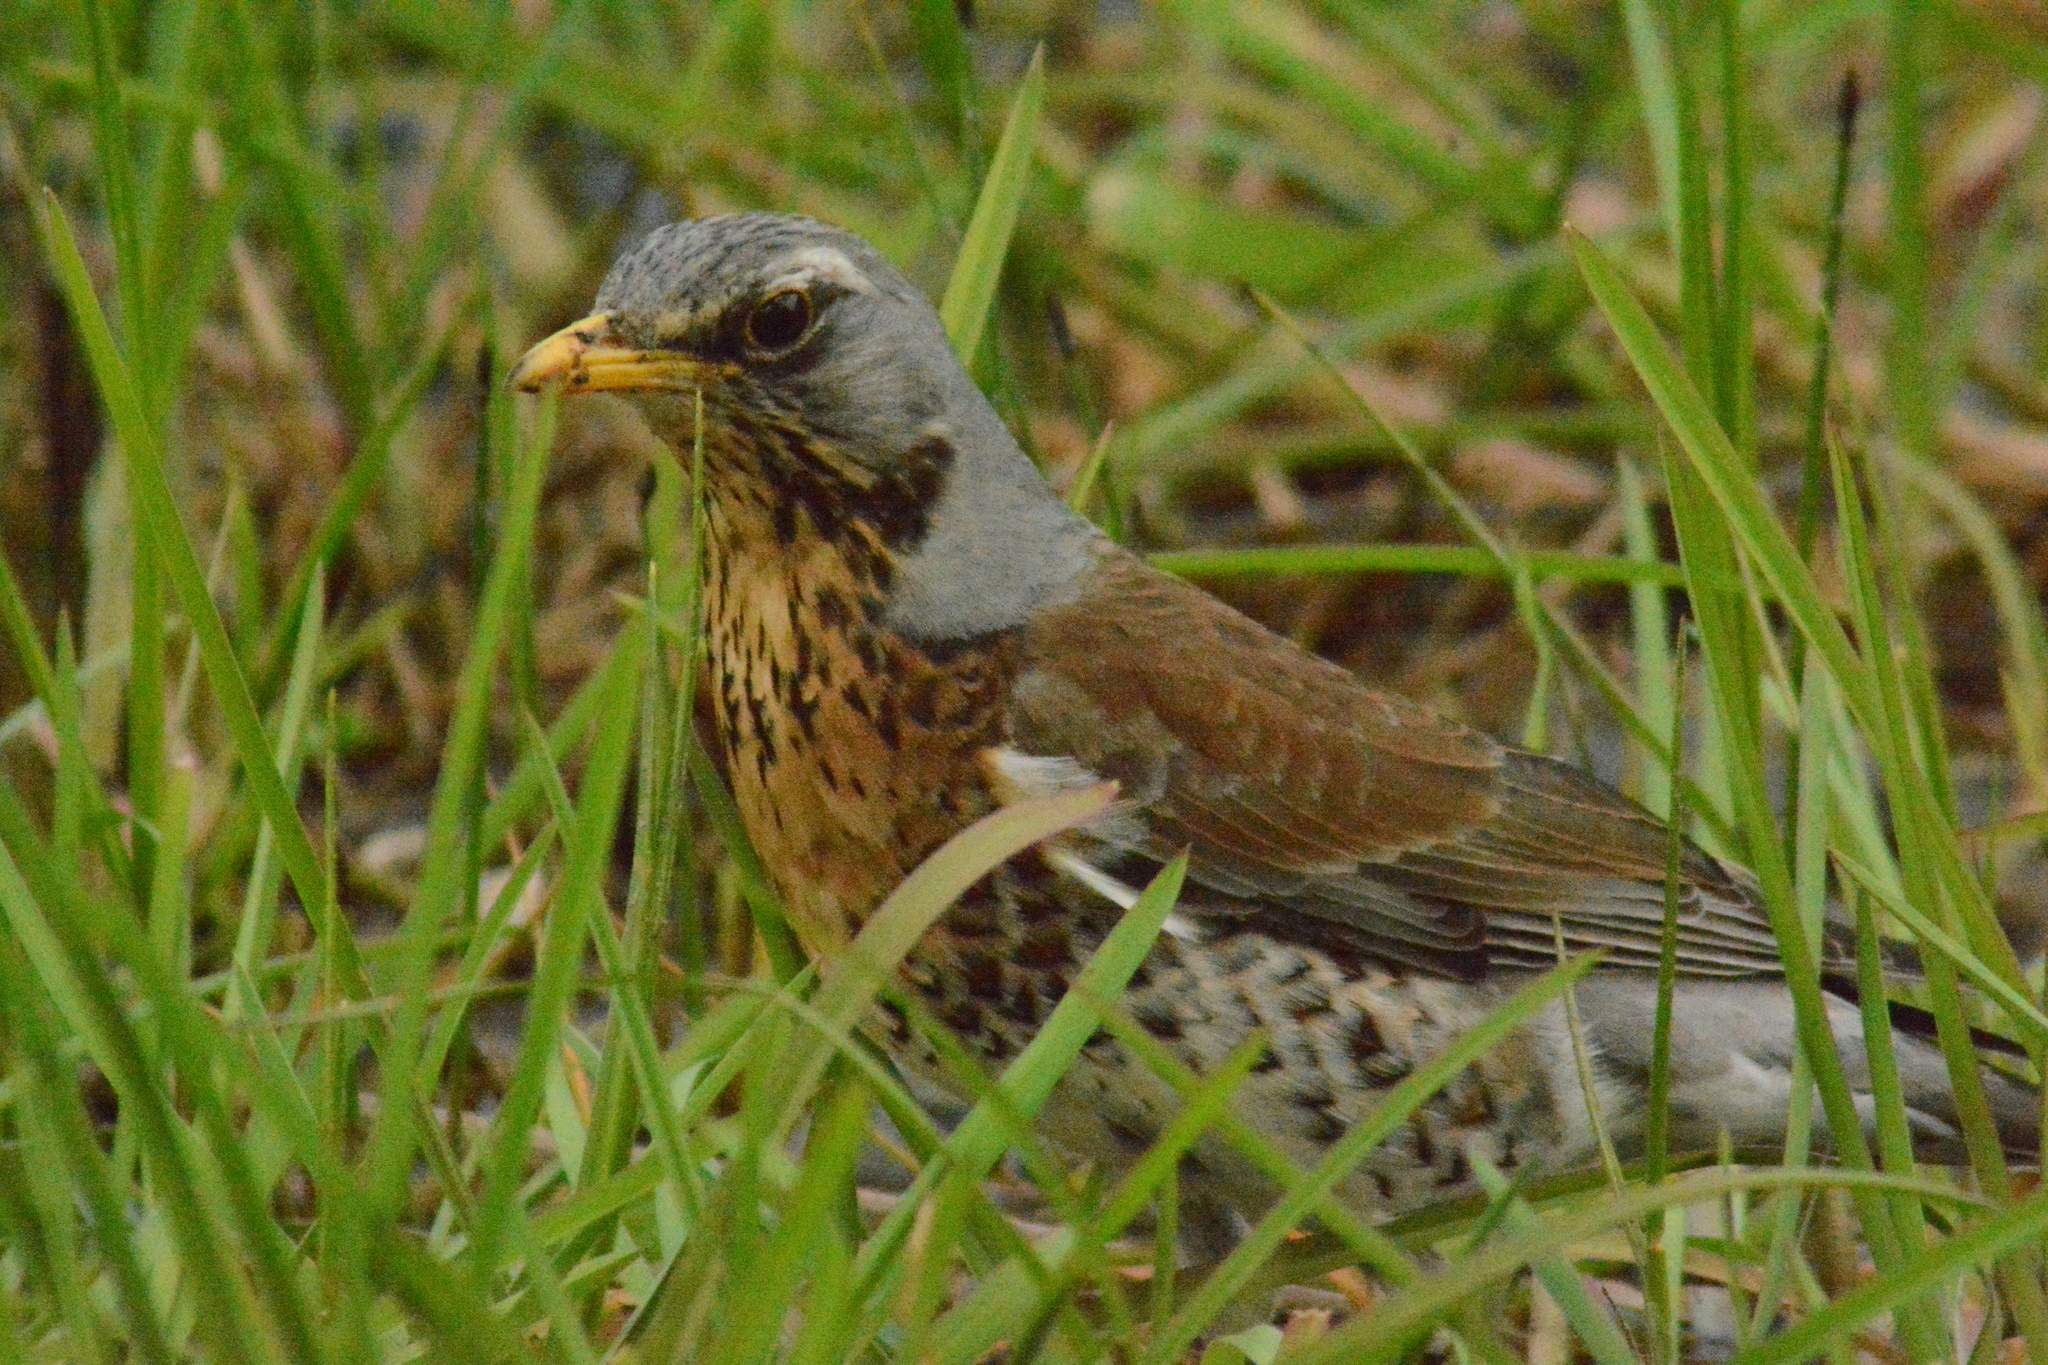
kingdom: Animalia
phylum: Chordata
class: Aves
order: Passeriformes
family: Turdidae
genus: Turdus
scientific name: Turdus pilaris
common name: Fieldfare
